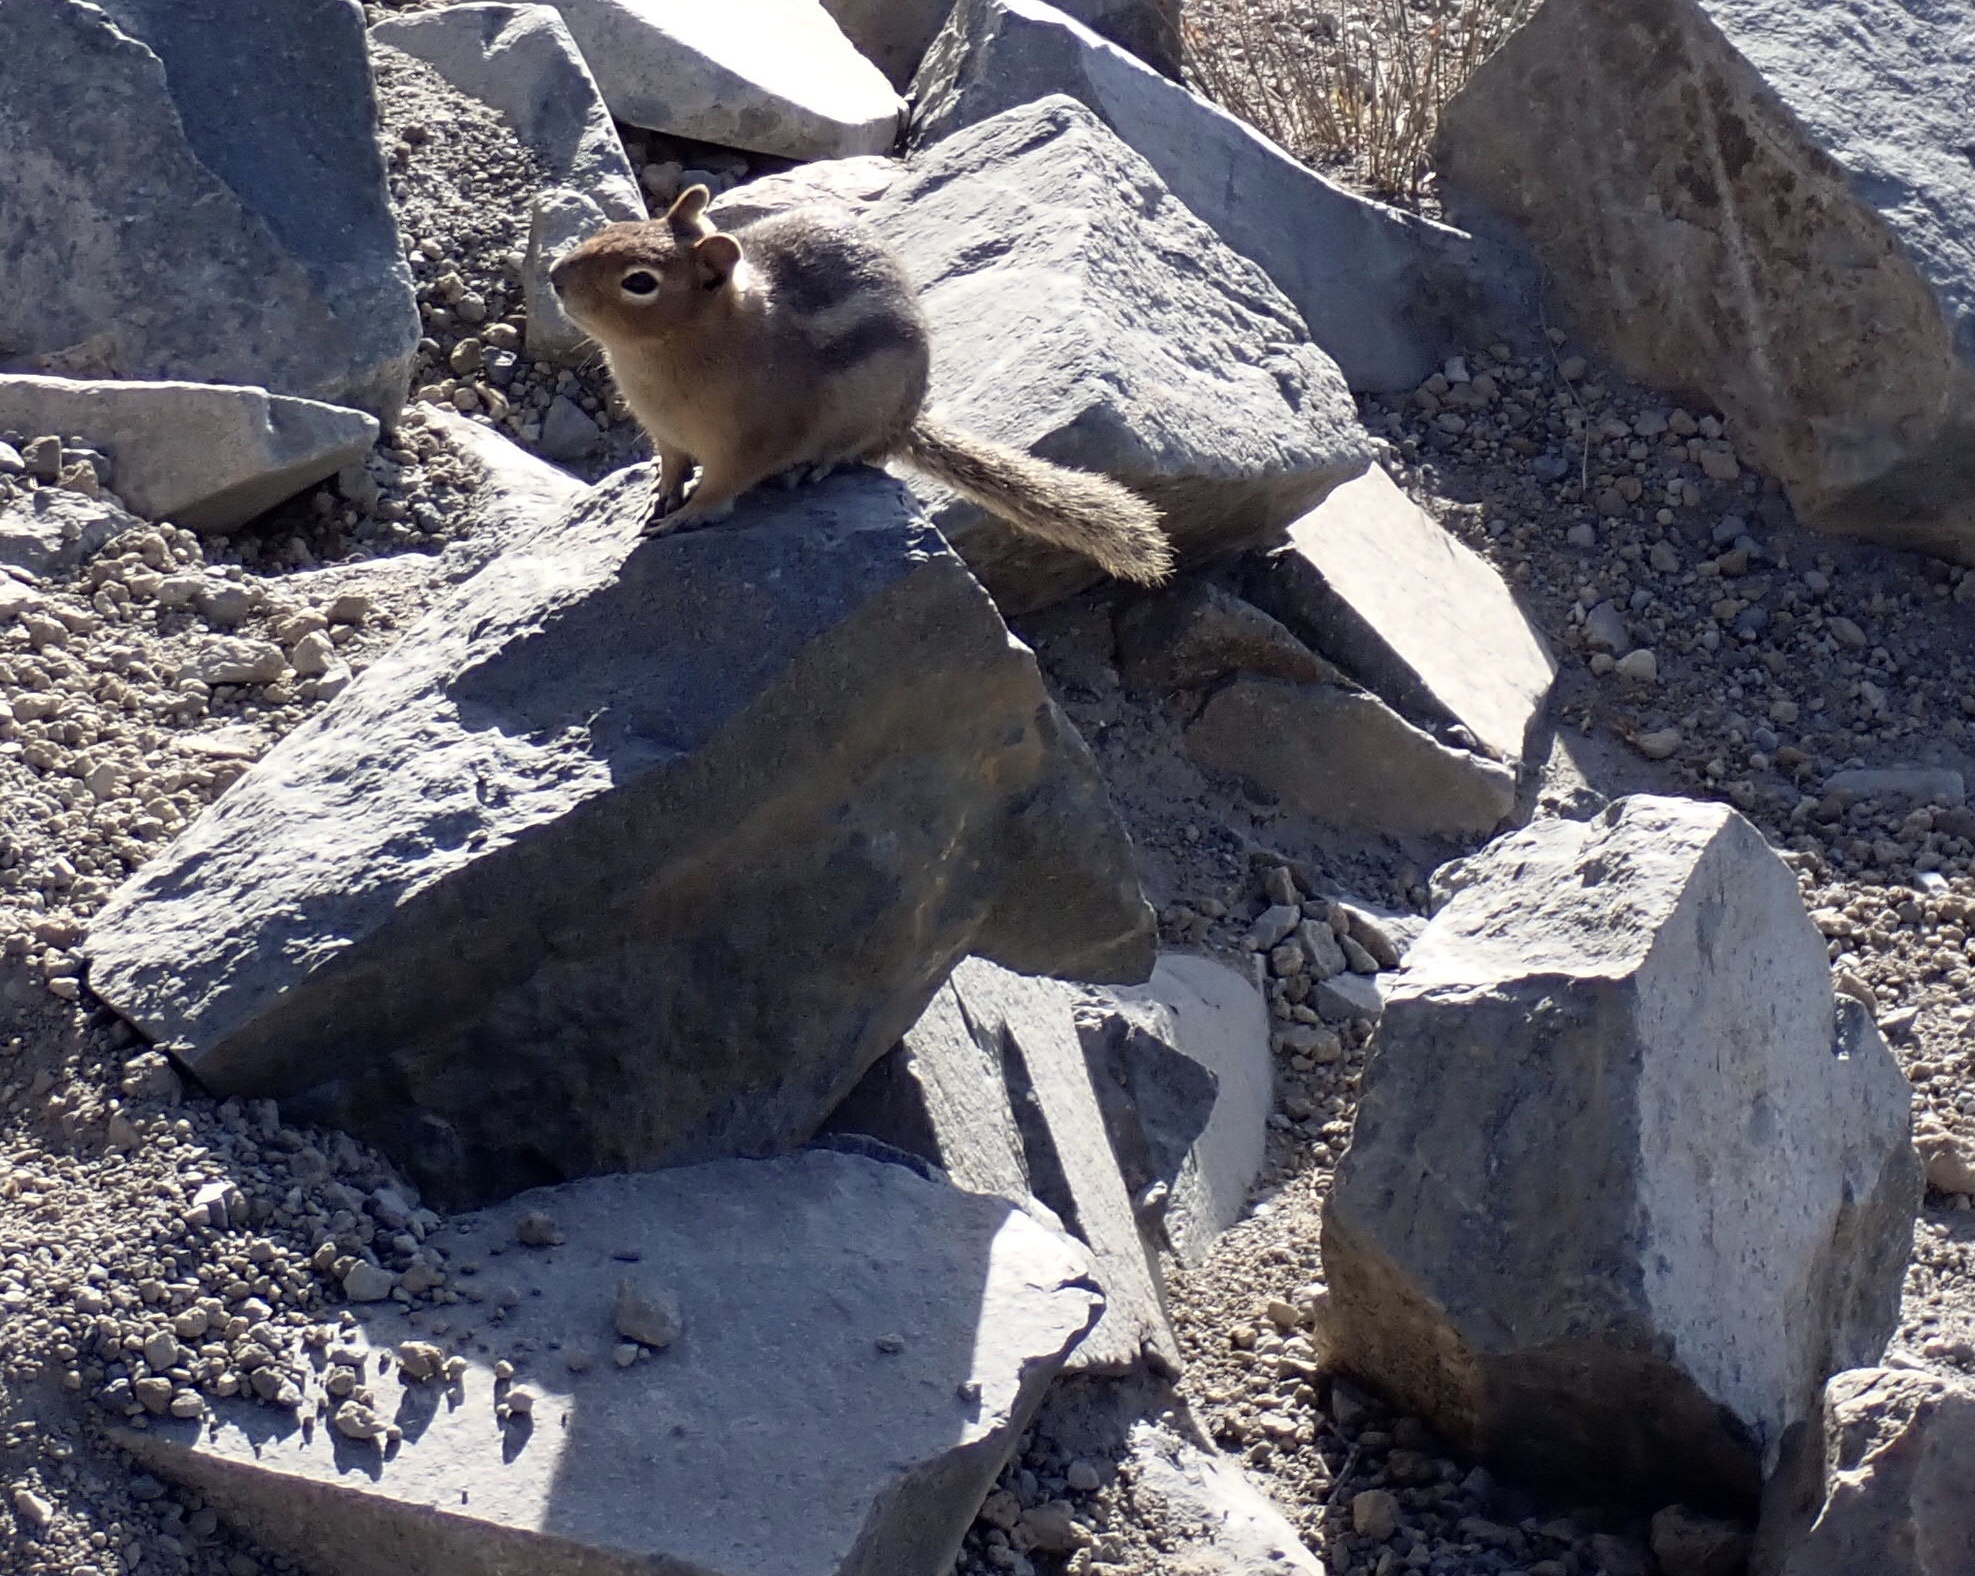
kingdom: Animalia
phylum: Chordata
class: Mammalia
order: Rodentia
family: Sciuridae
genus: Callospermophilus
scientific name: Callospermophilus saturatus
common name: Cascade golden-mantled ground squirrel
